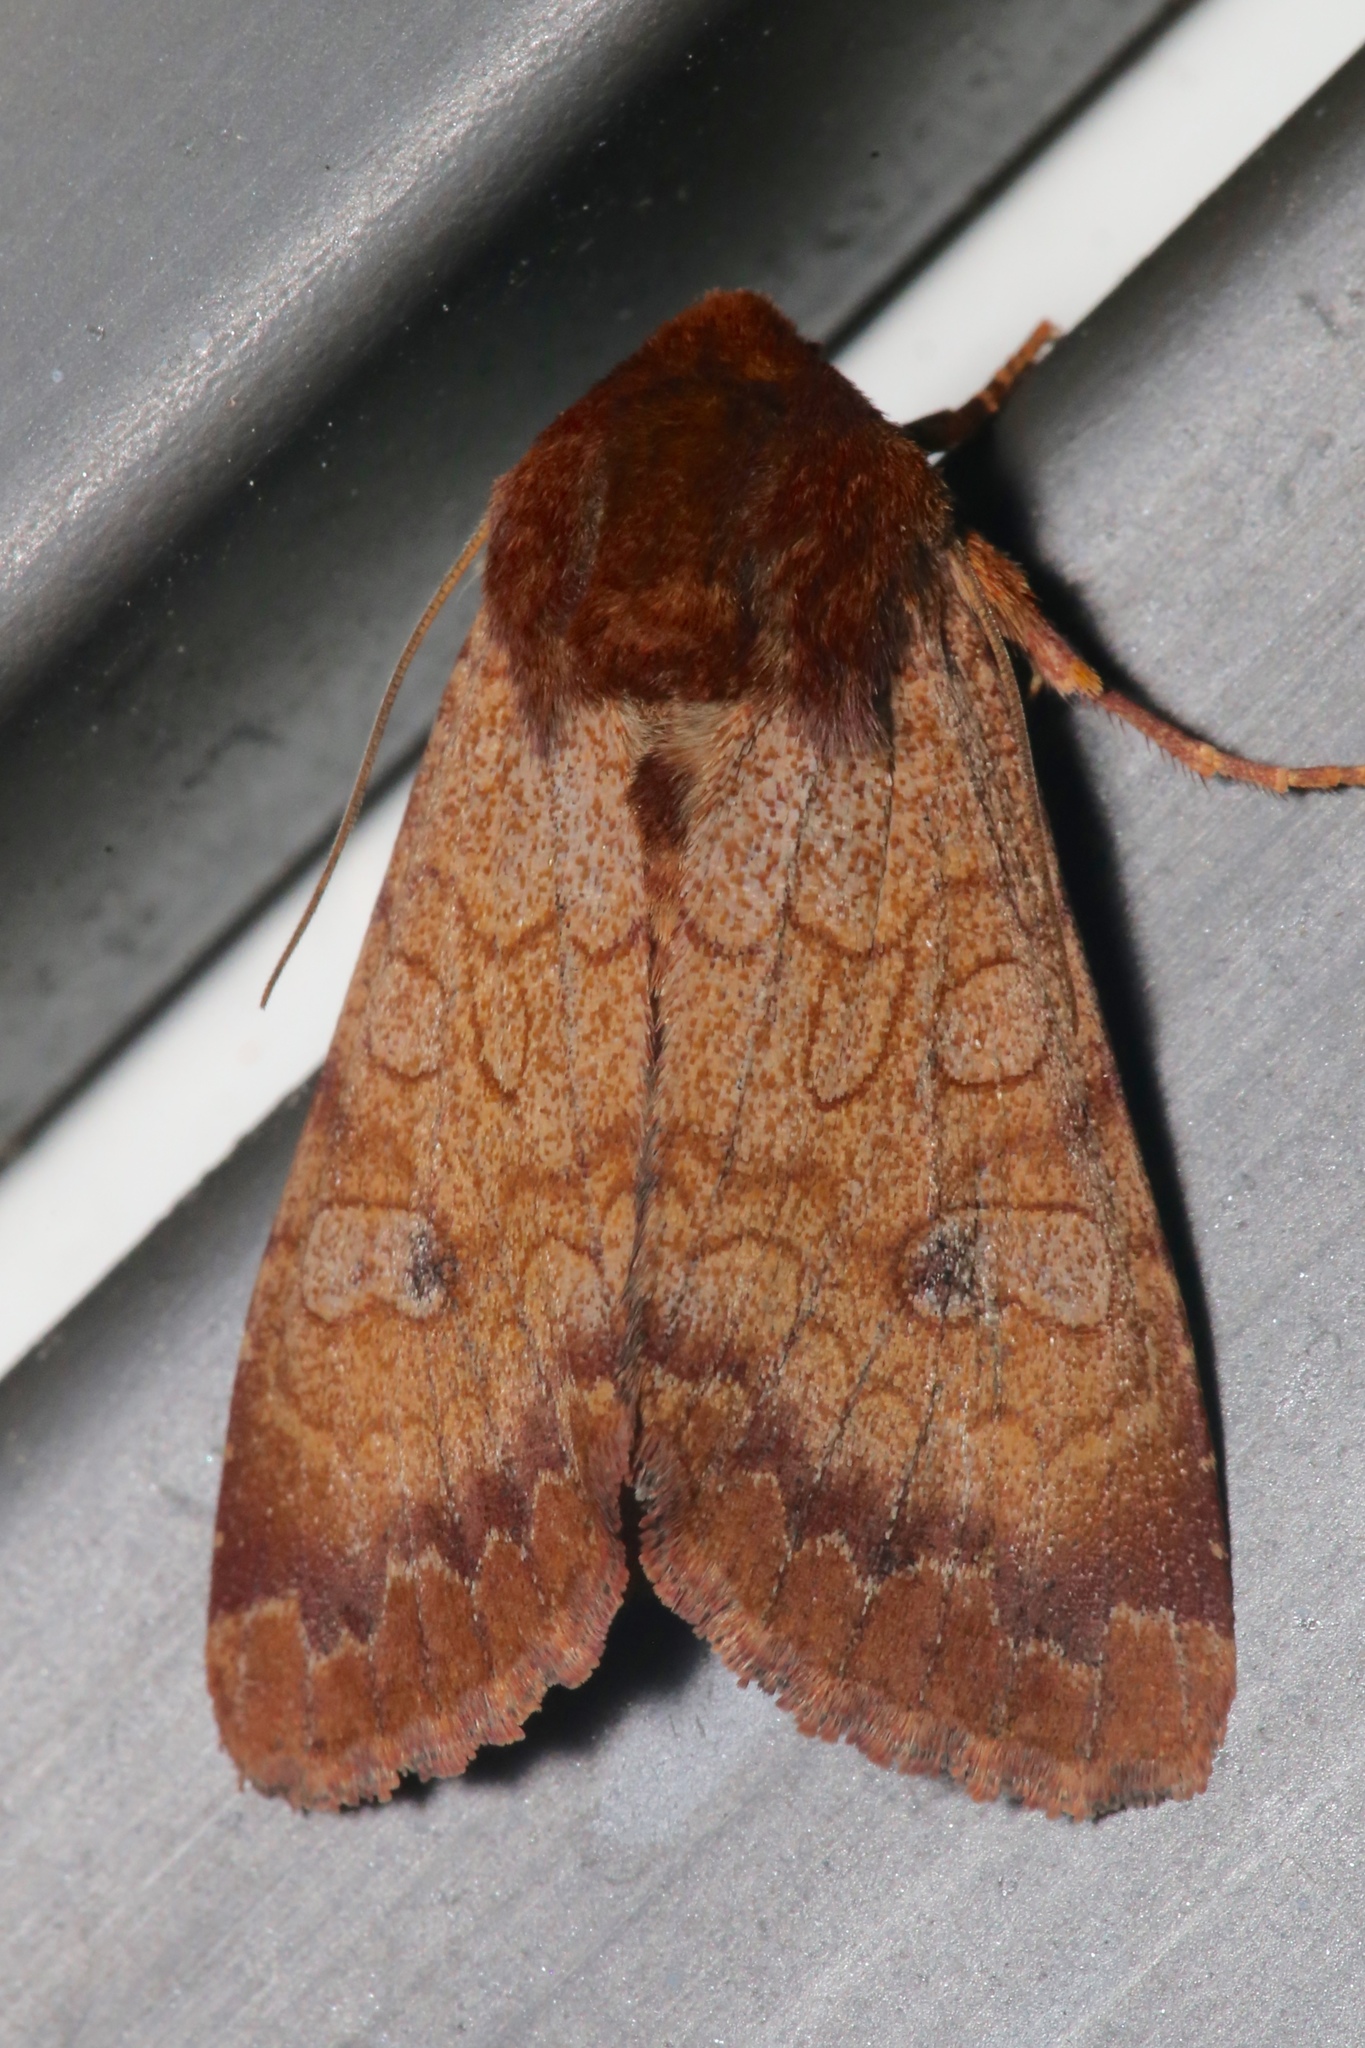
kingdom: Animalia
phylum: Arthropoda
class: Insecta
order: Lepidoptera
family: Noctuidae
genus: Sideridis
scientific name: Sideridis rosea
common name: Rosewing moth
